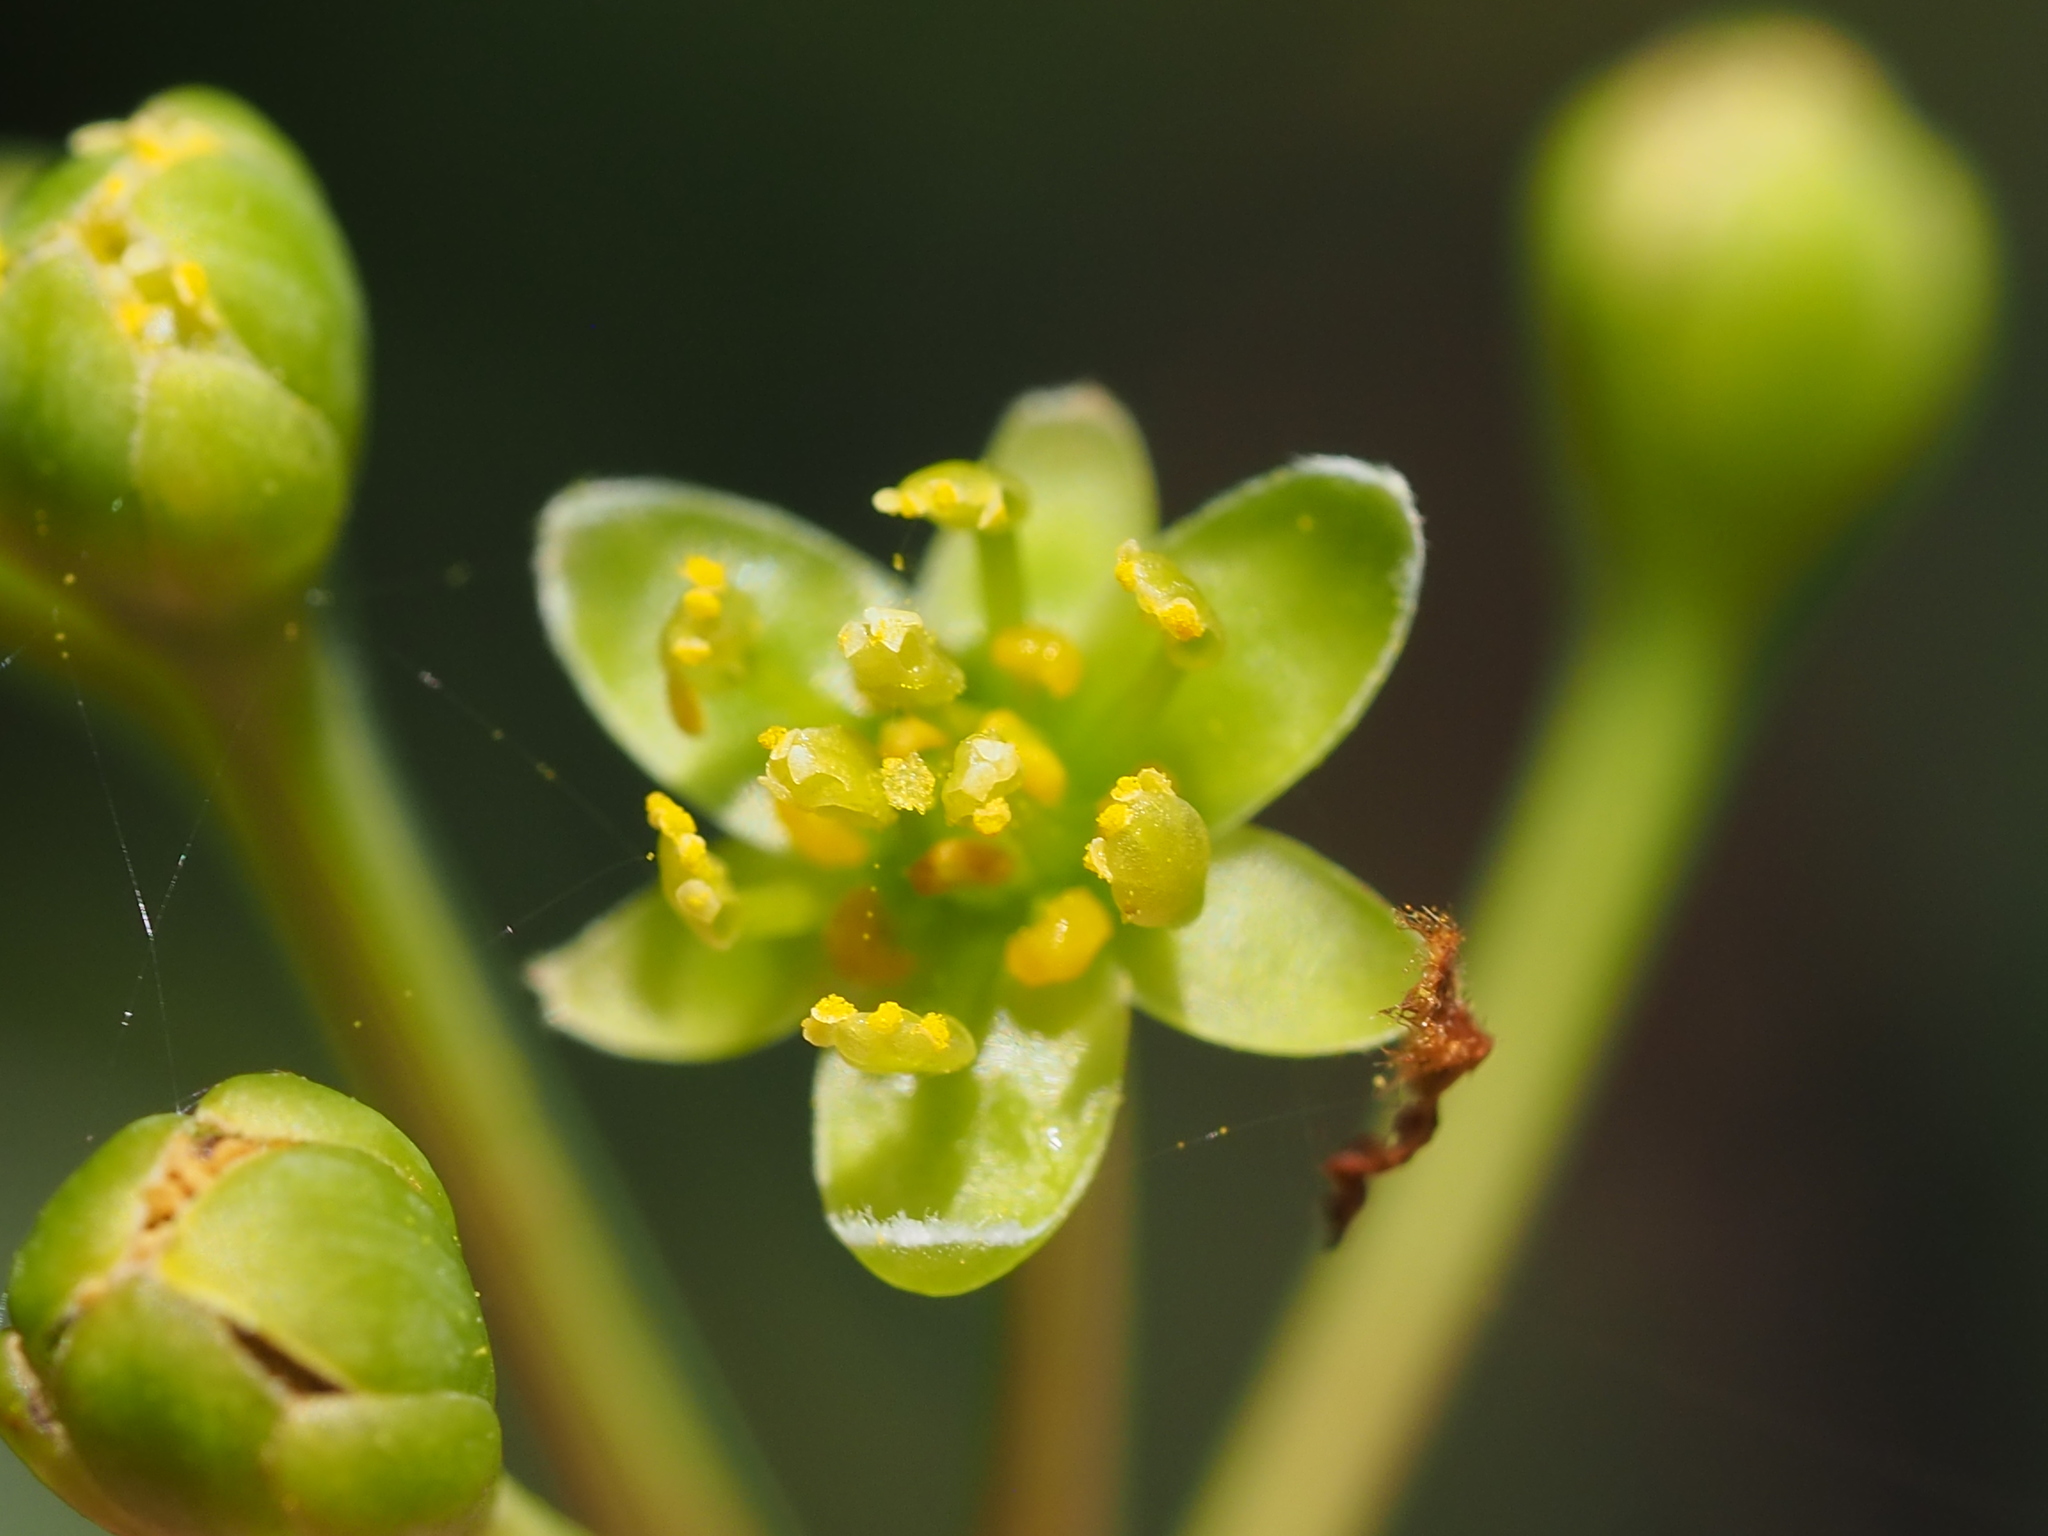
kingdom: Plantae
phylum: Tracheophyta
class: Magnoliopsida
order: Laurales
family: Lauraceae
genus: Machilus
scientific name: Machilus thunbergii
